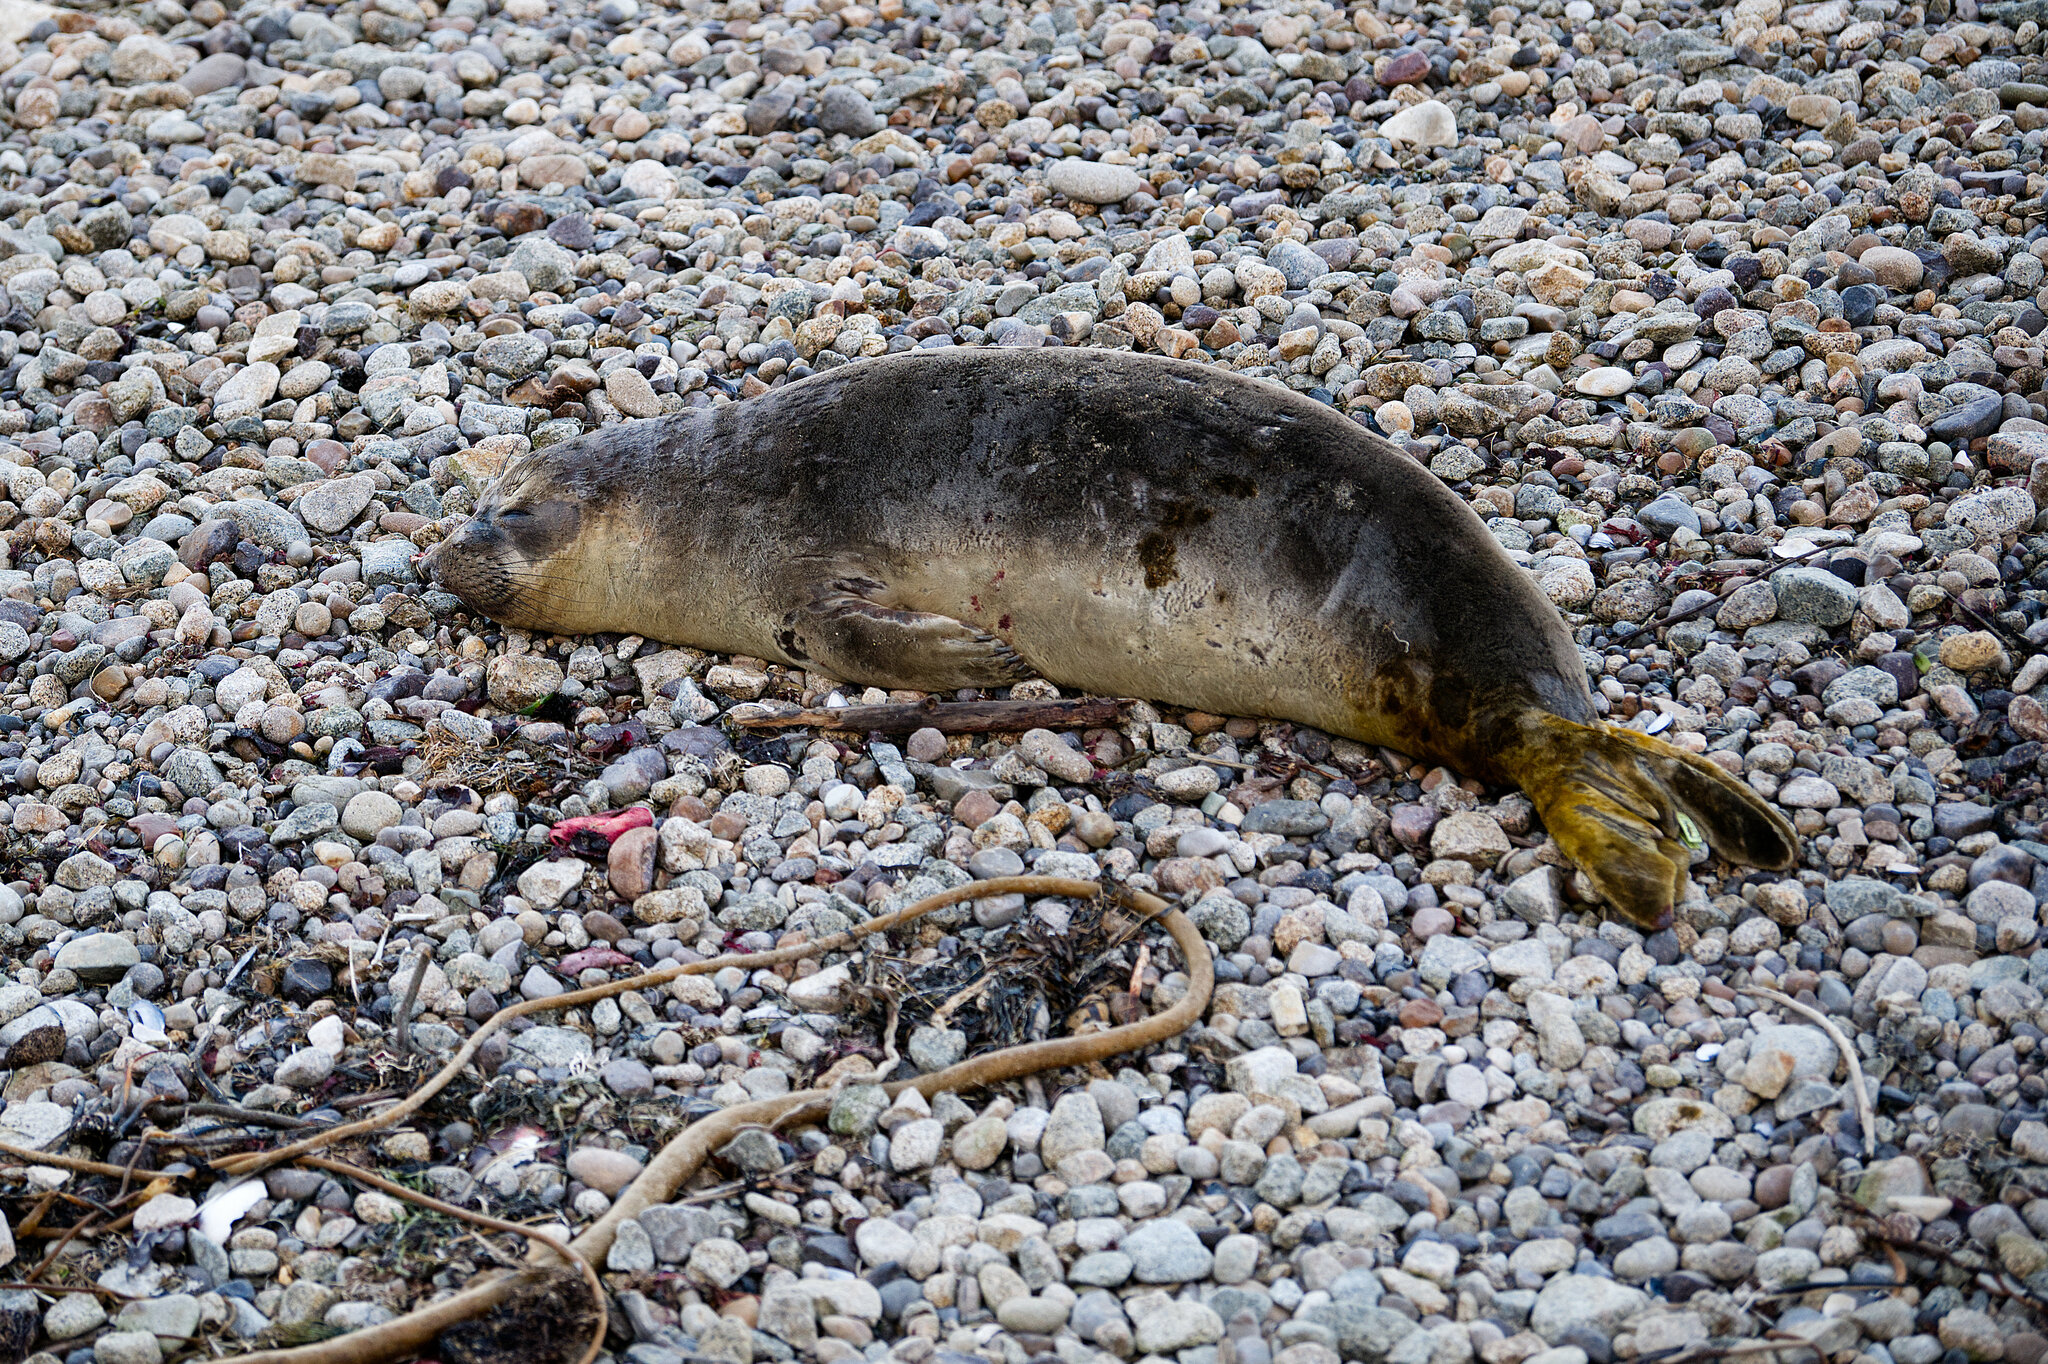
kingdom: Animalia
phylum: Chordata
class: Mammalia
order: Carnivora
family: Phocidae
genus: Mirounga
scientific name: Mirounga angustirostris
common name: Northern elephant seal
